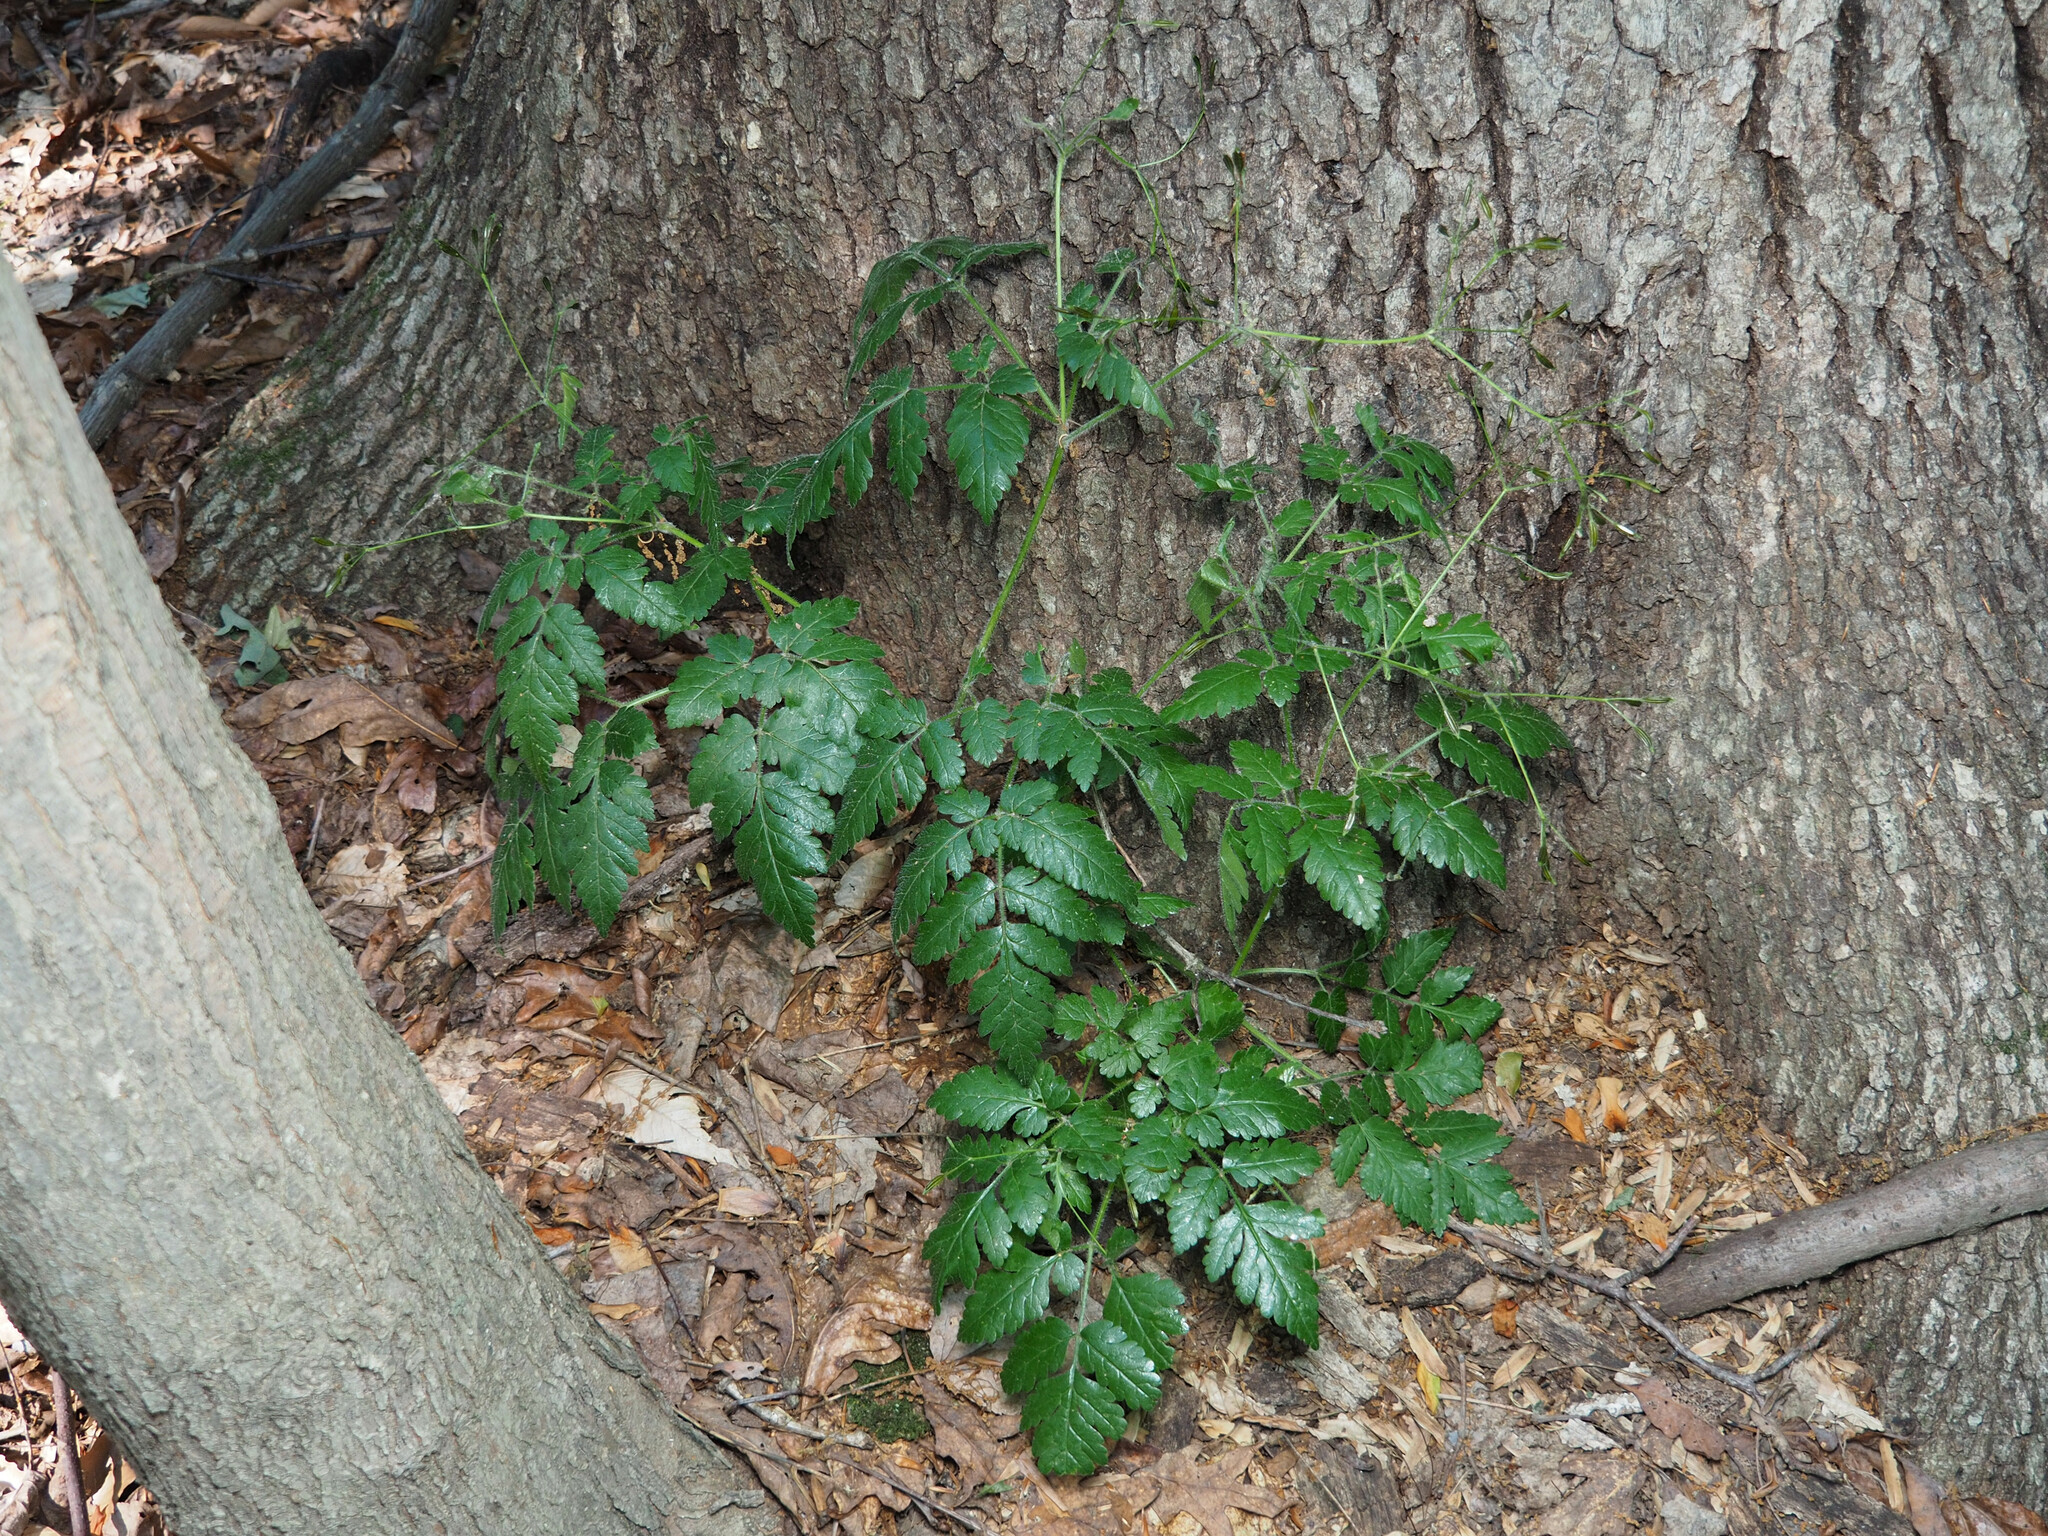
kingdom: Plantae
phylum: Tracheophyta
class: Magnoliopsida
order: Apiales
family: Apiaceae
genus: Osmorhiza
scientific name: Osmorhiza claytonii
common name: Hairy sweet cicely
